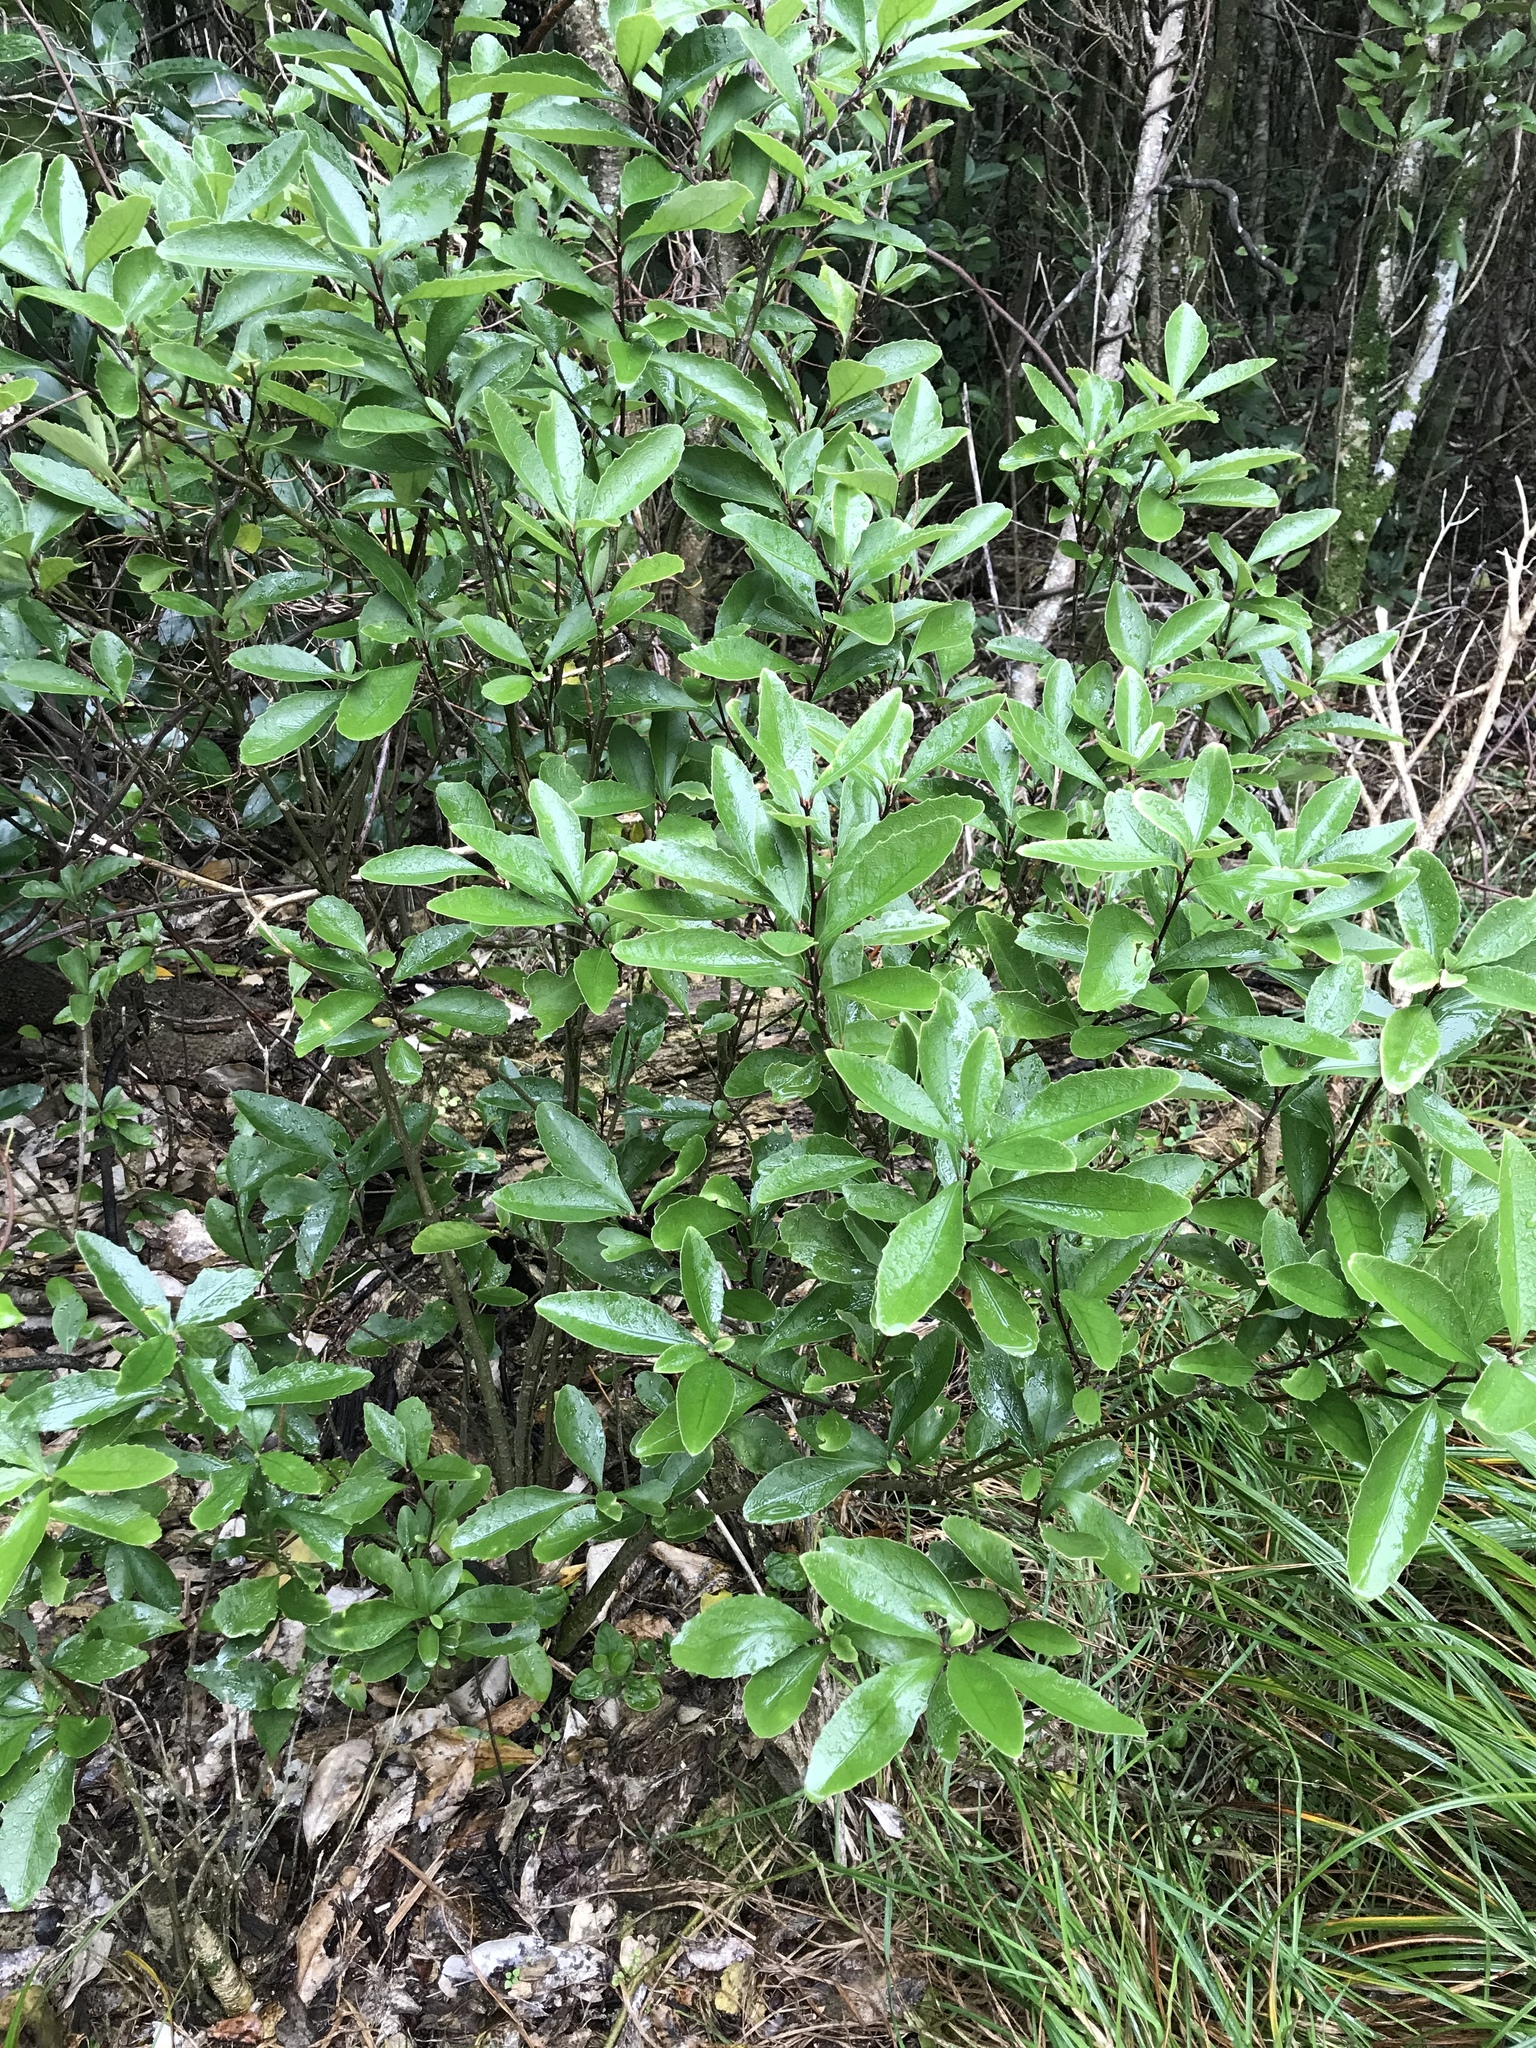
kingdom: Plantae
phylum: Tracheophyta
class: Magnoliopsida
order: Malpighiales
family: Violaceae
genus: Melicytus
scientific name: Melicytus chathamicus
